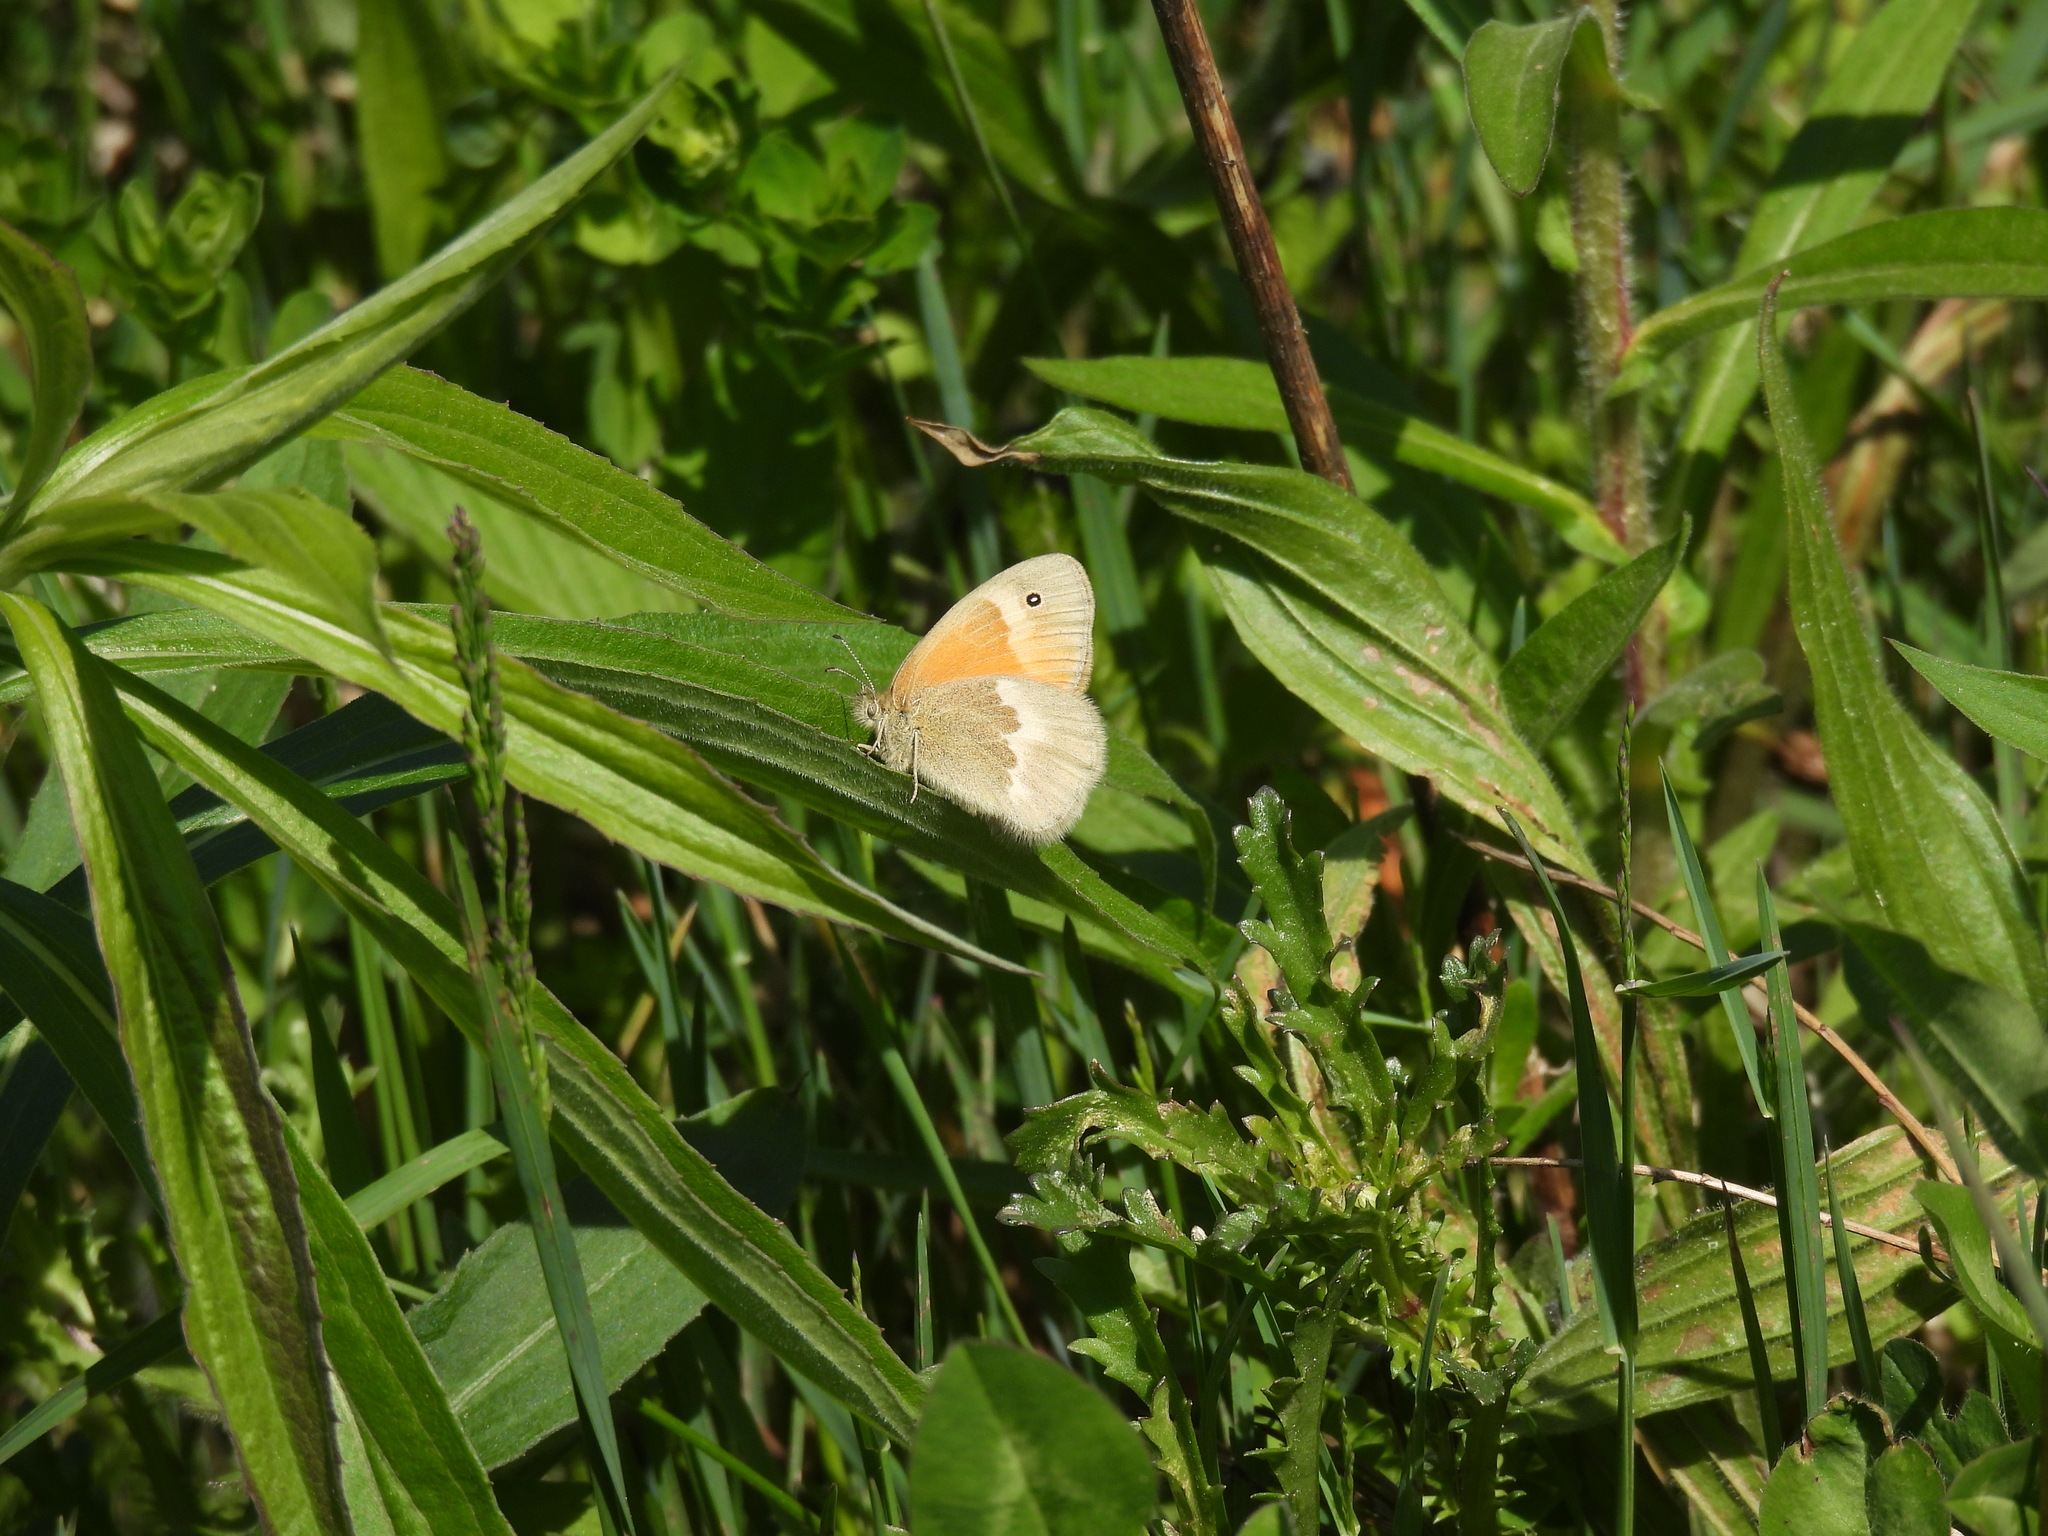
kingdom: Animalia
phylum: Arthropoda
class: Insecta
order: Lepidoptera
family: Nymphalidae
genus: Coenonympha
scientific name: Coenonympha california
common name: Common ringlet
